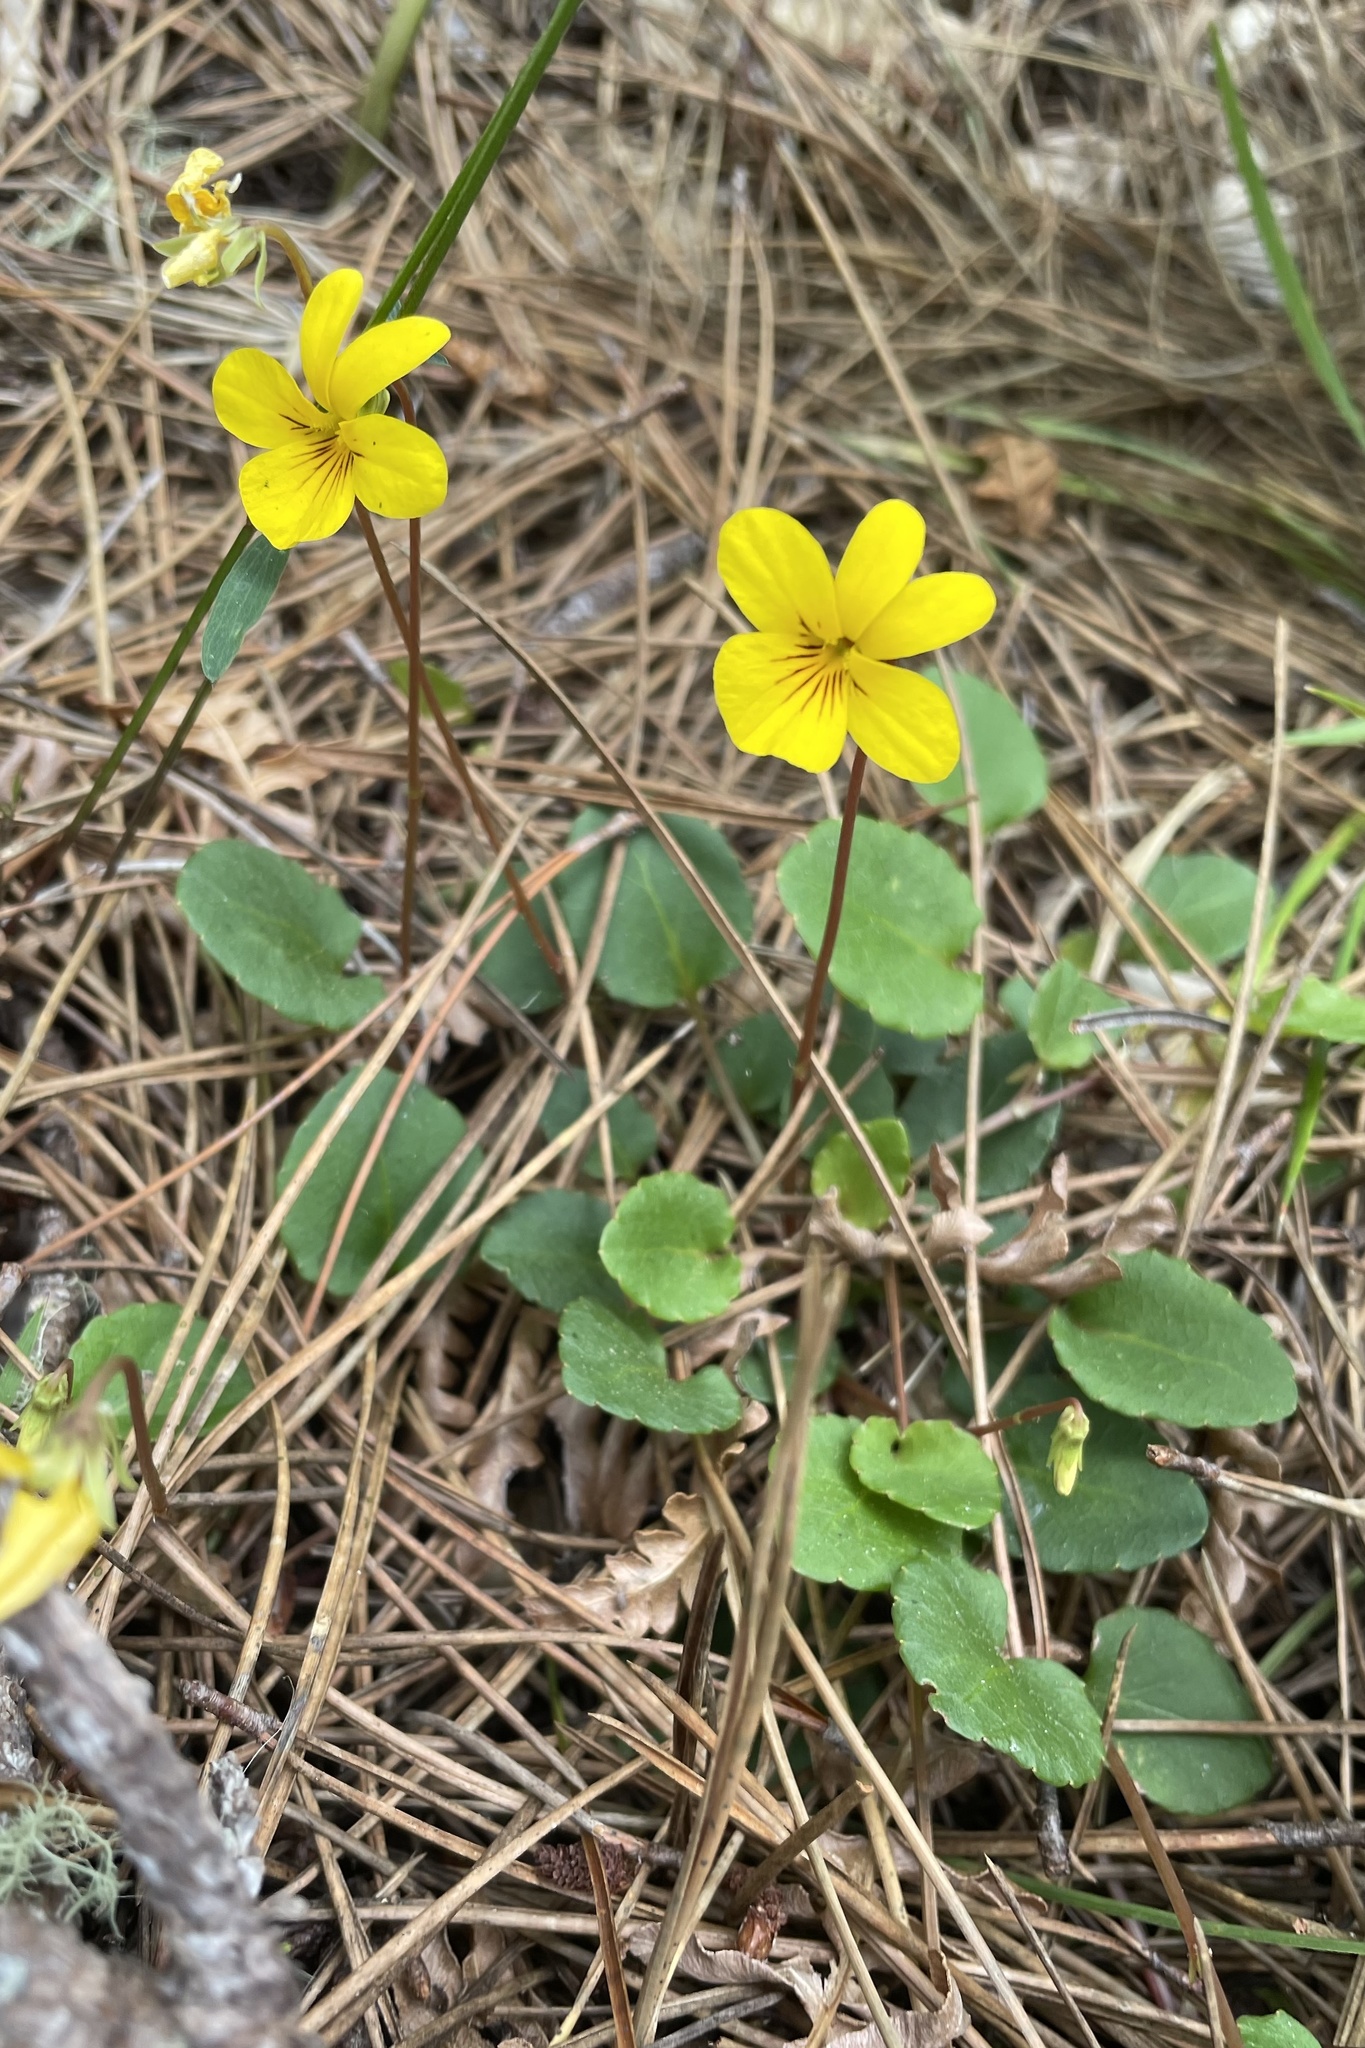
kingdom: Plantae
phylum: Tracheophyta
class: Magnoliopsida
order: Malpighiales
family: Violaceae
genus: Viola
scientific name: Viola sempervirens
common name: Evergreen violet
